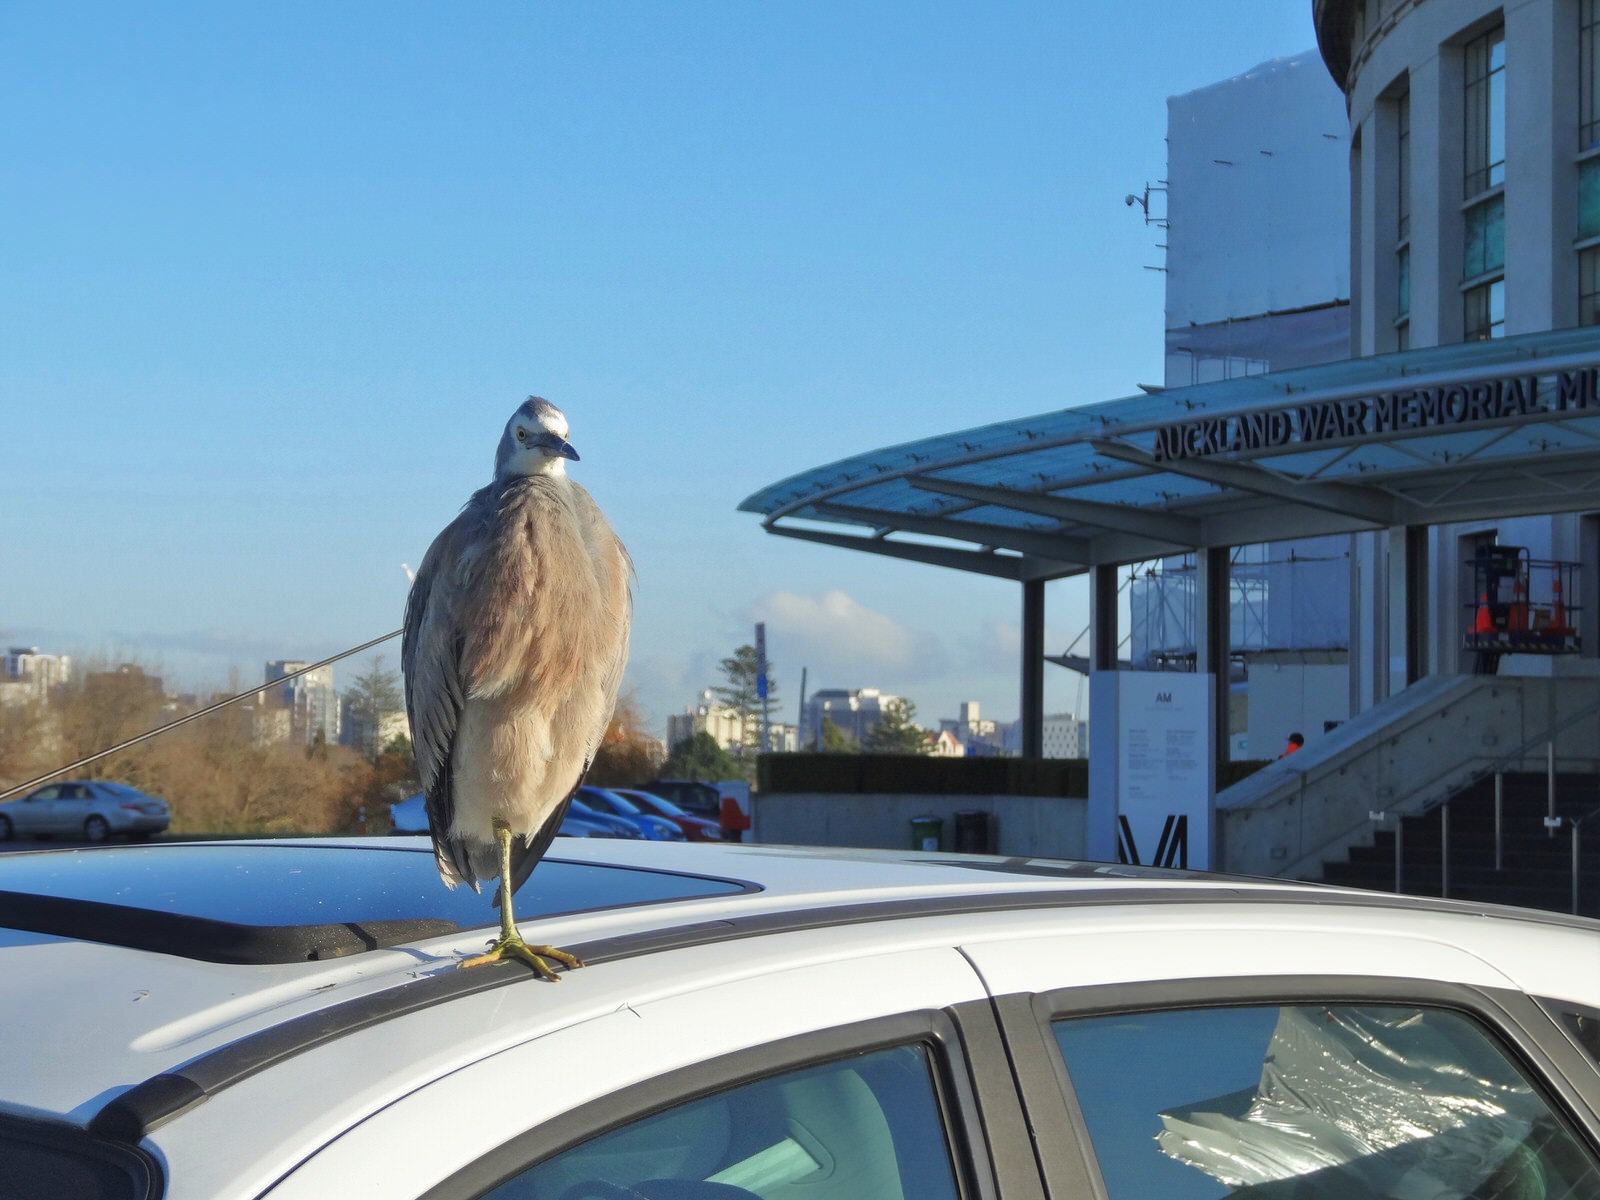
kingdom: Animalia
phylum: Chordata
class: Aves
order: Pelecaniformes
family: Ardeidae
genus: Egretta
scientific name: Egretta novaehollandiae
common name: White-faced heron
